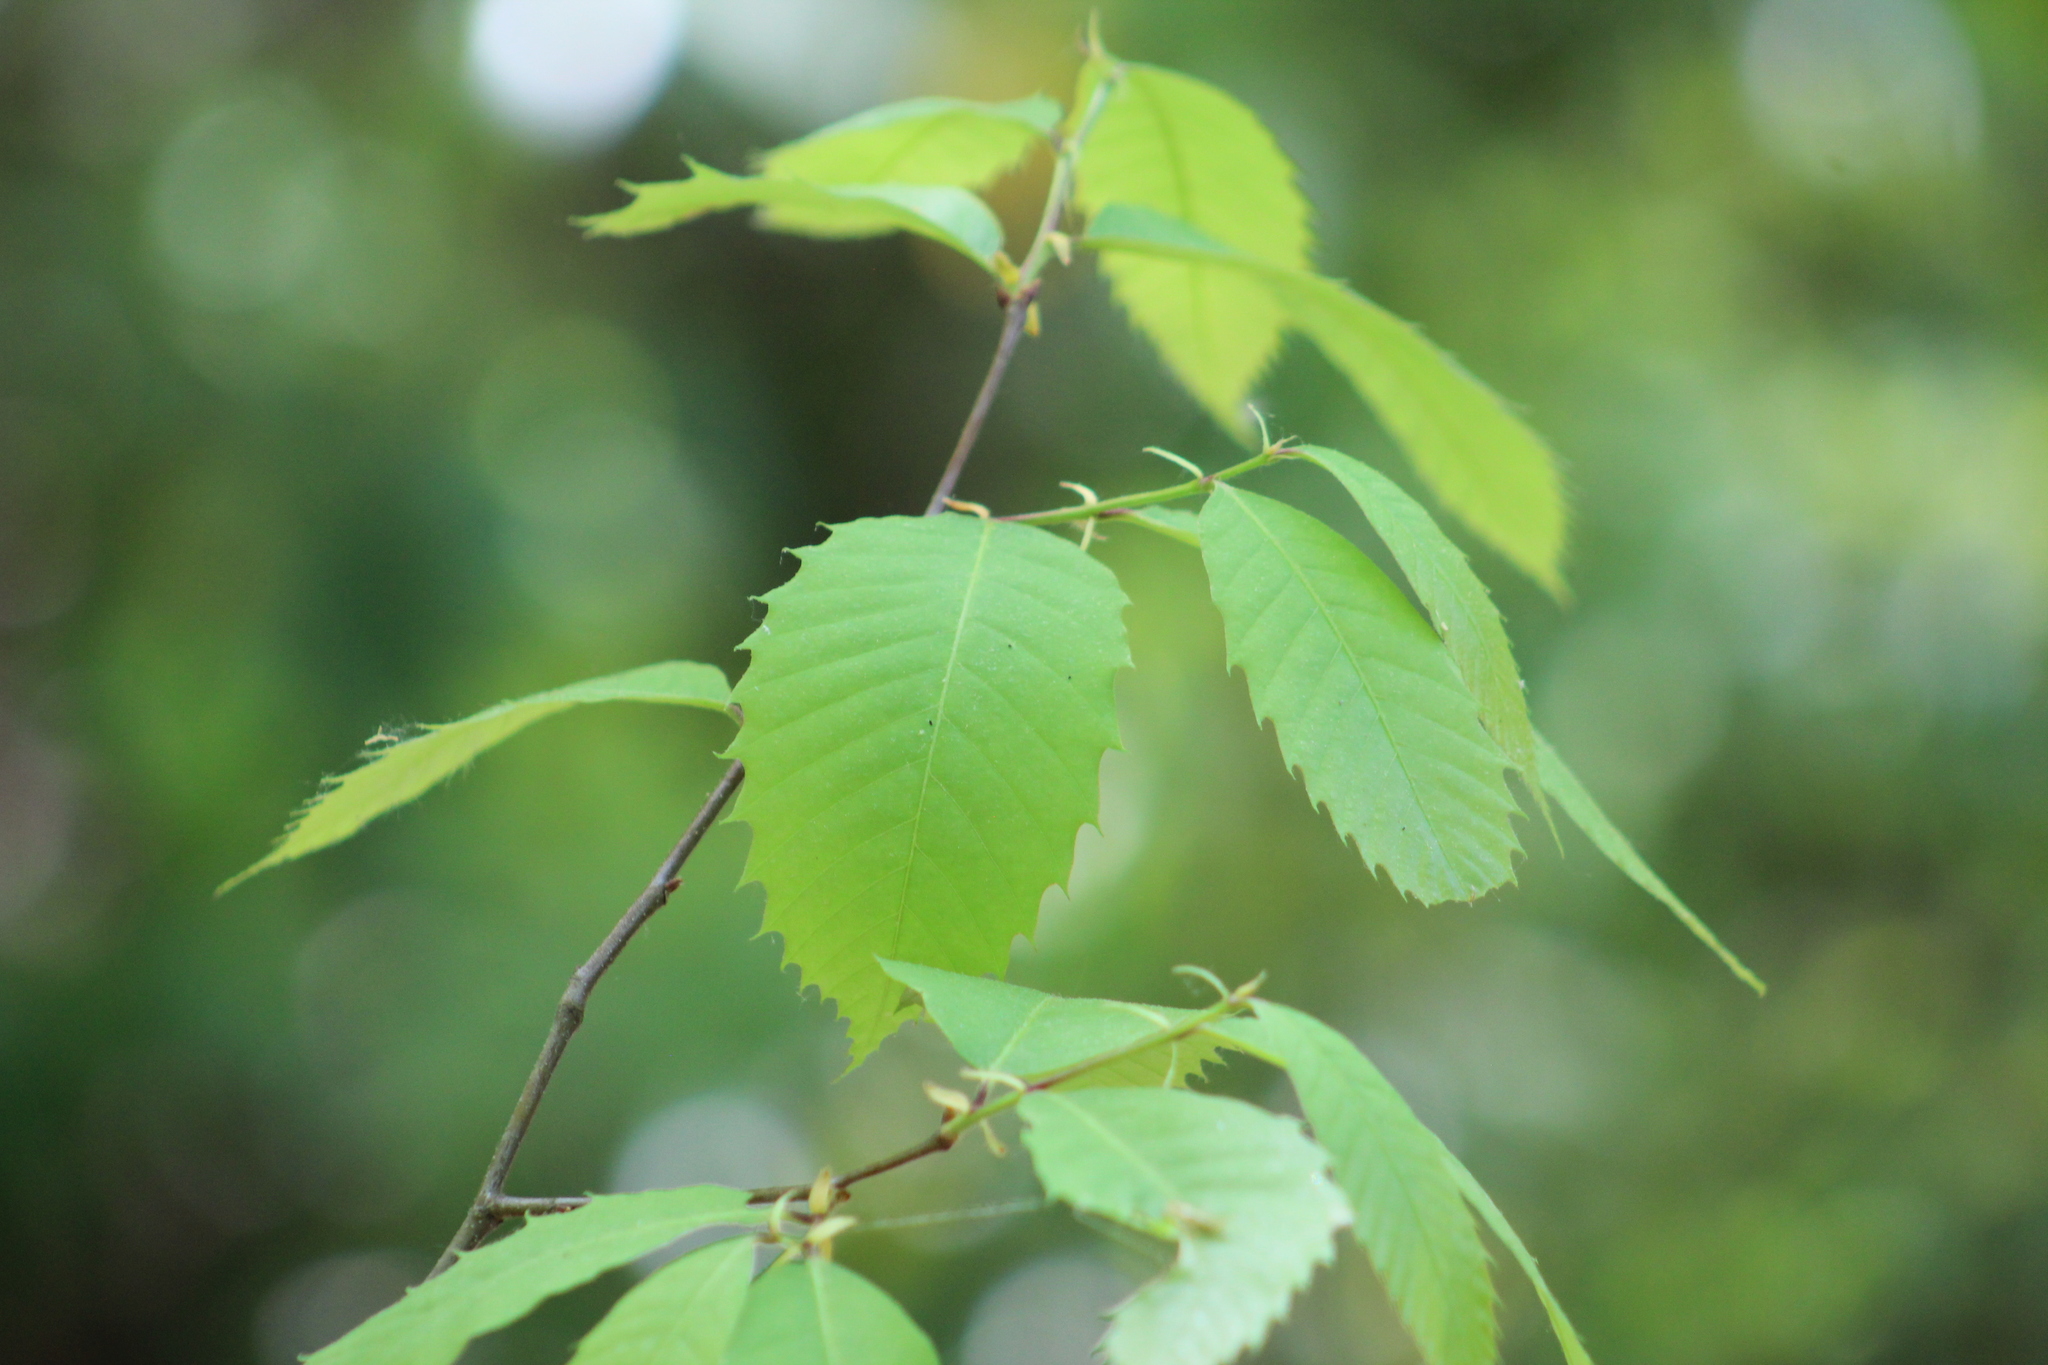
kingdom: Plantae
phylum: Tracheophyta
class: Magnoliopsida
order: Fagales
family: Fagaceae
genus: Castanea
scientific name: Castanea dentata
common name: American chestnut
